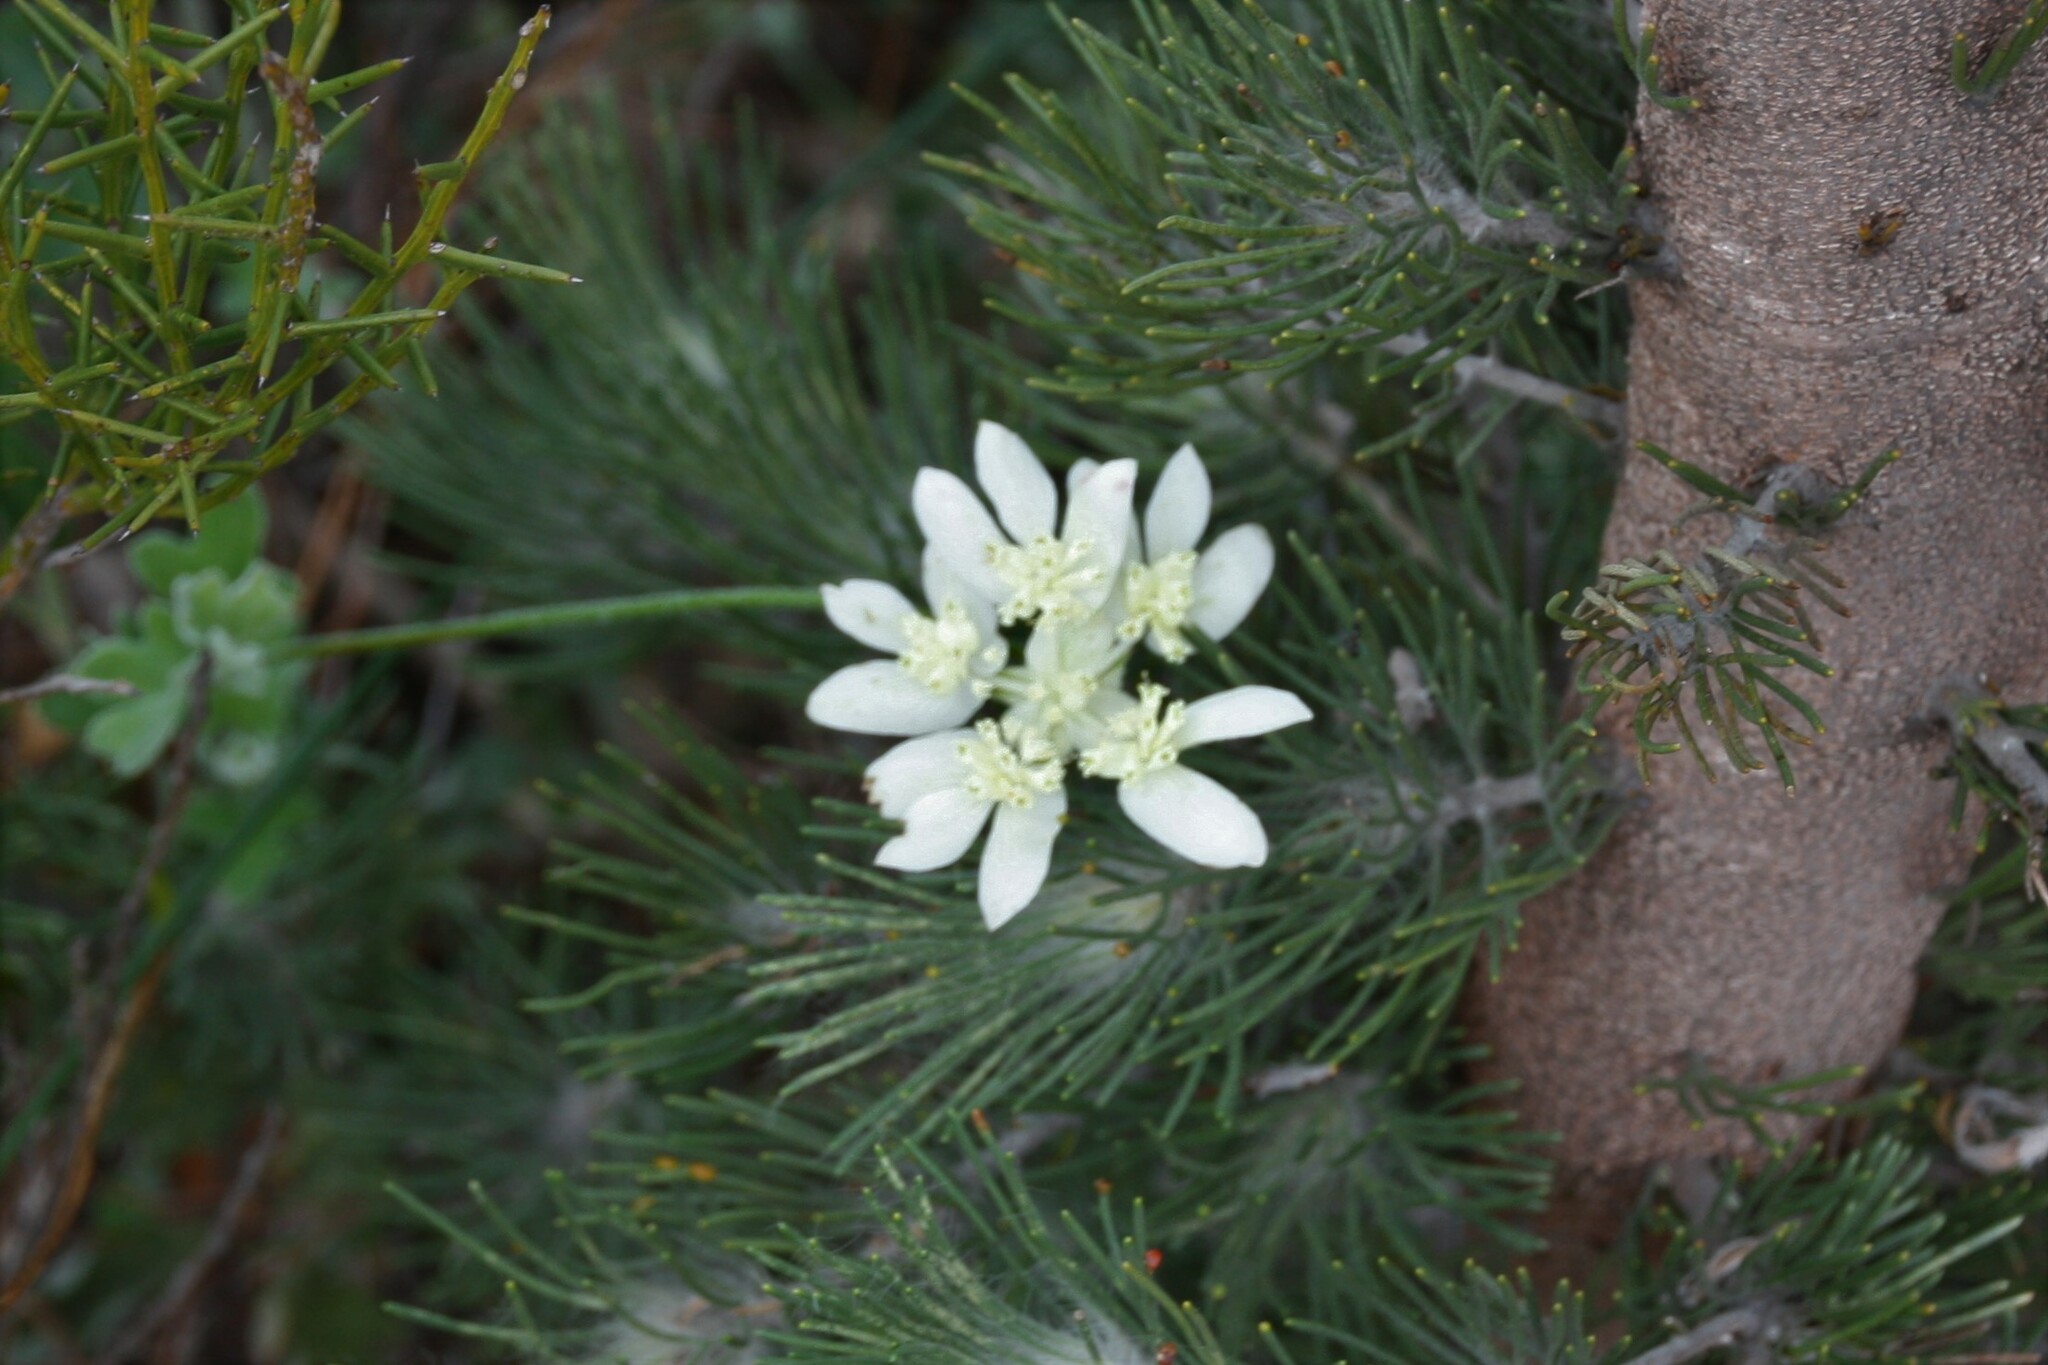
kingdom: Plantae
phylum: Tracheophyta
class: Magnoliopsida
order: Apiales
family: Apiaceae
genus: Xanthosia
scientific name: Xanthosia tomentosa
